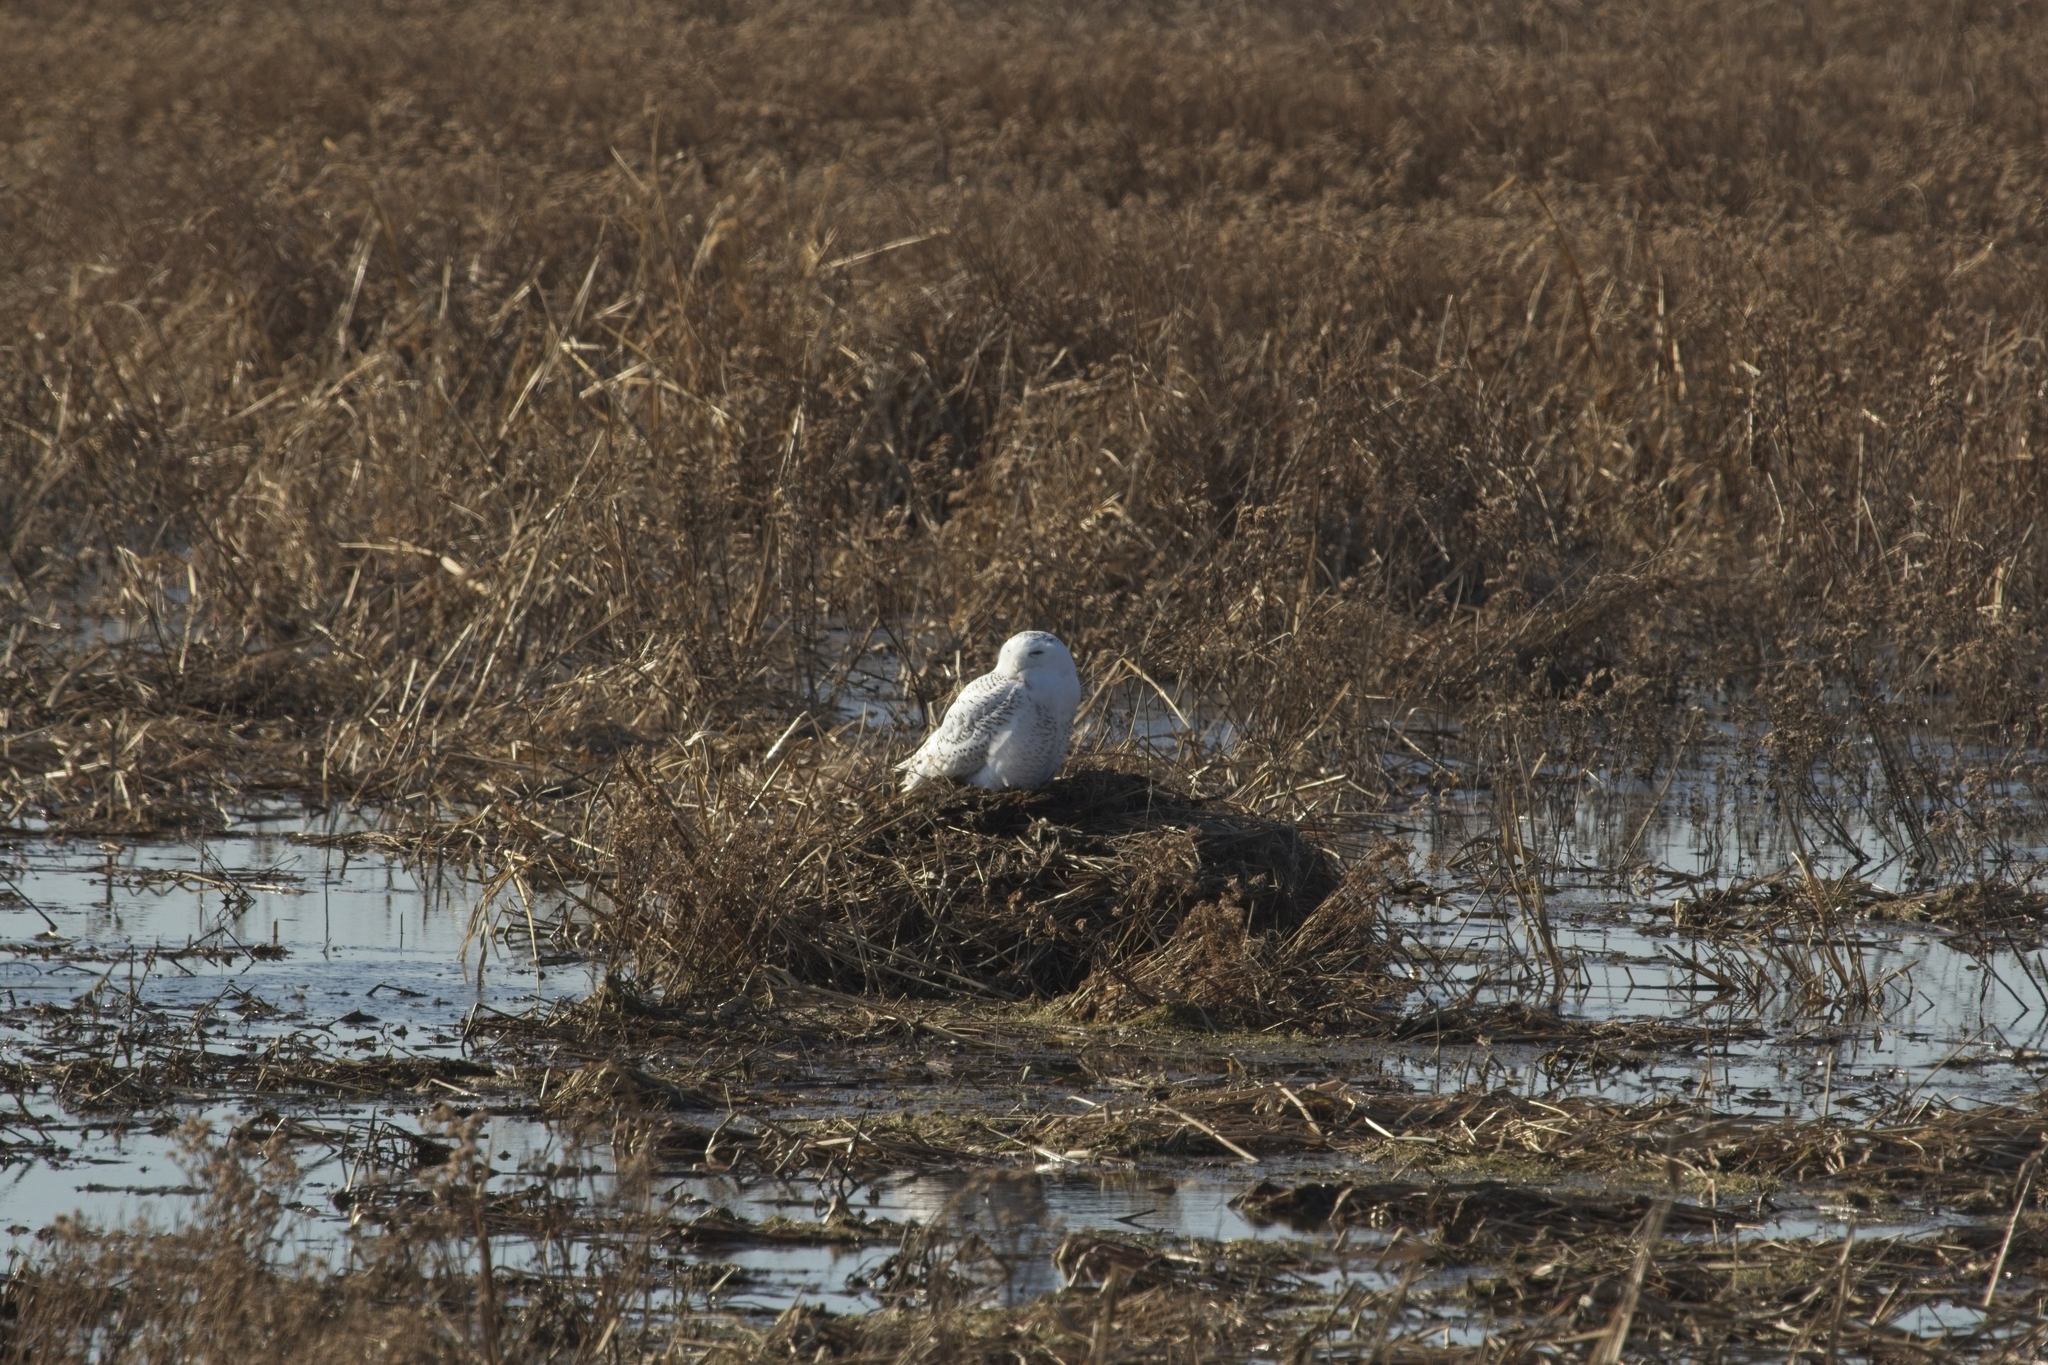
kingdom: Animalia
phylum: Chordata
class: Aves
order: Strigiformes
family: Strigidae
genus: Bubo
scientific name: Bubo scandiacus
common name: Snowy owl
